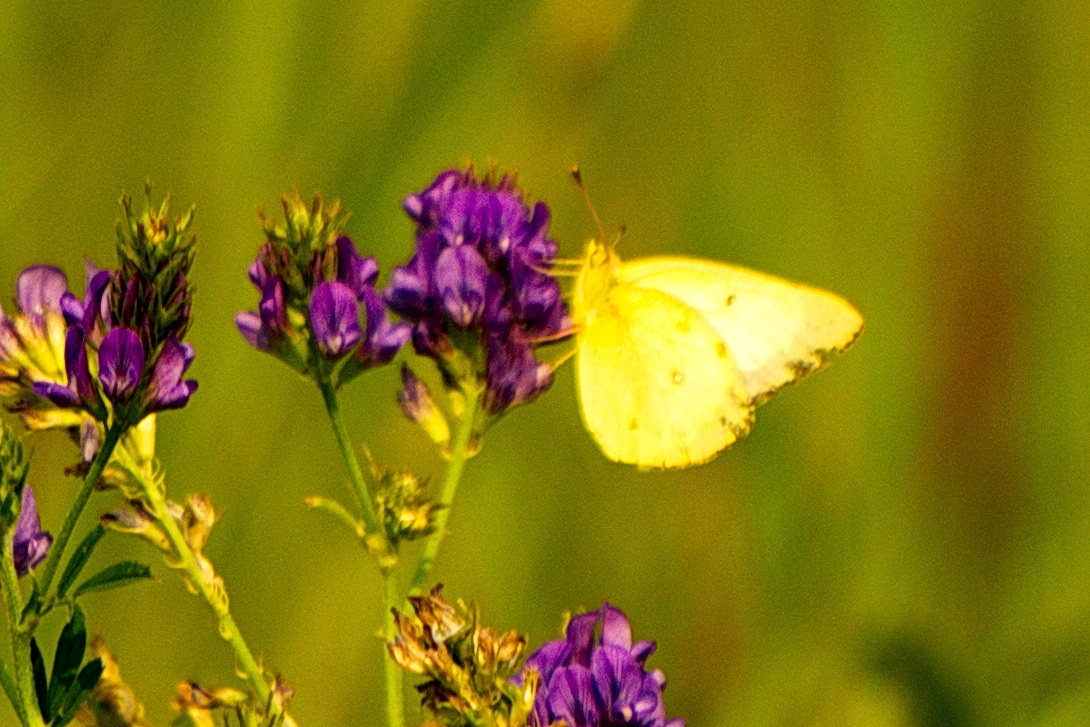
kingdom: Animalia
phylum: Arthropoda
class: Insecta
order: Lepidoptera
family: Pieridae
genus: Colias
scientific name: Colias philodice
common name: Clouded sulphur
